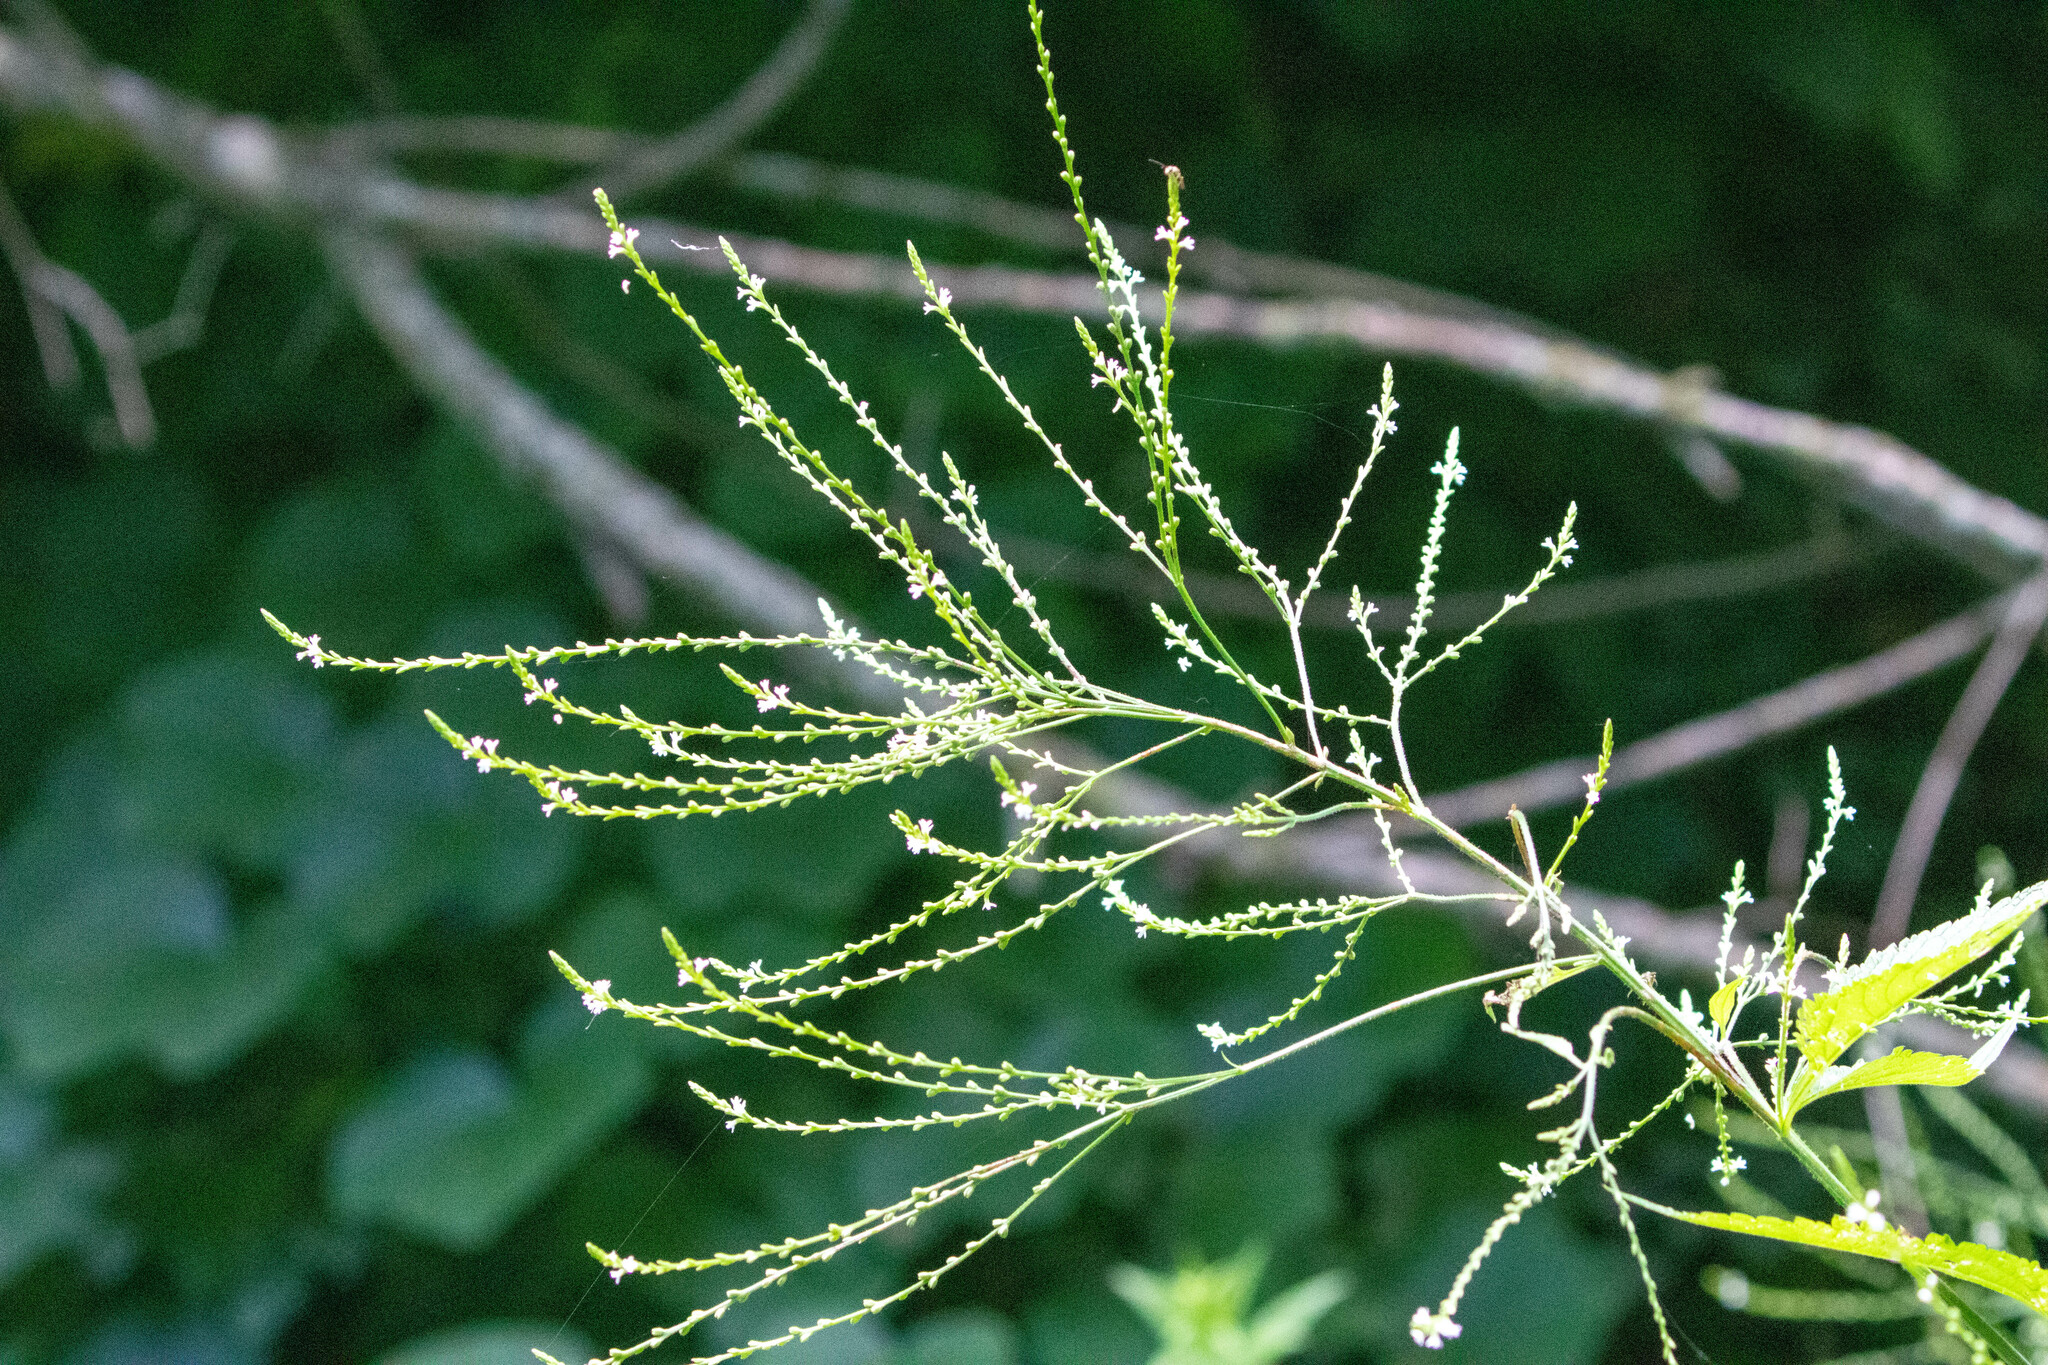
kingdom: Plantae
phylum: Tracheophyta
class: Magnoliopsida
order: Lamiales
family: Verbenaceae
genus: Verbena
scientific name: Verbena urticifolia
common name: Nettle-leaved vervain
